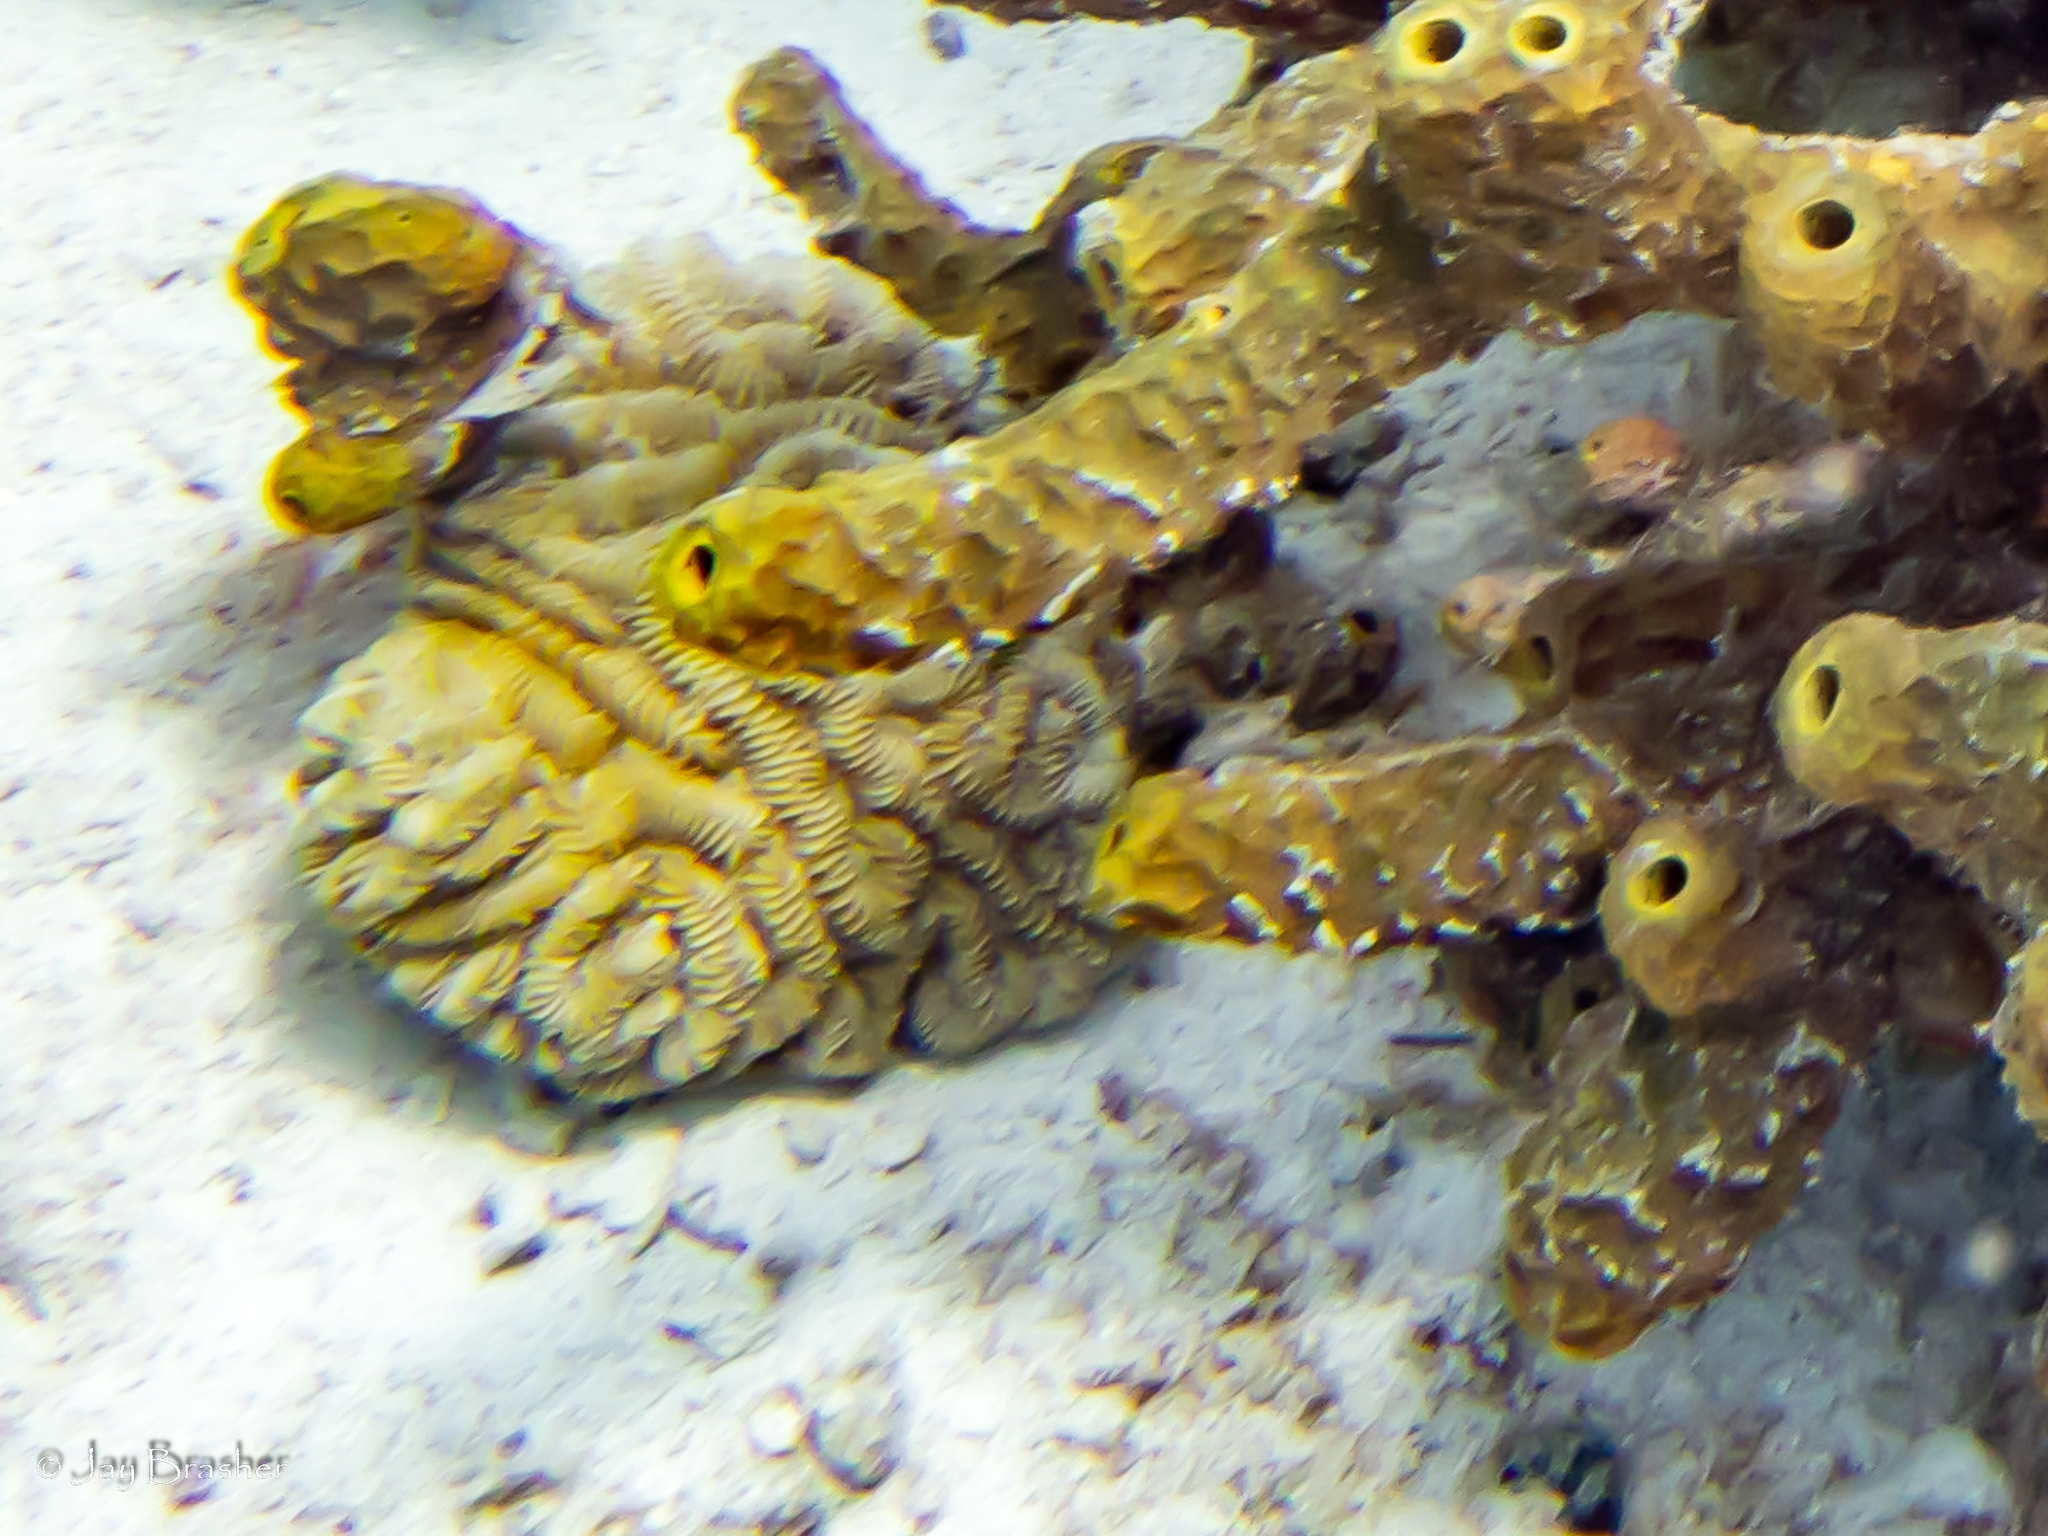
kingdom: Animalia
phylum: Cnidaria
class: Anthozoa
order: Scleractinia
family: Meandrinidae
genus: Meandrina
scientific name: Meandrina meandrites
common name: Maze coral
